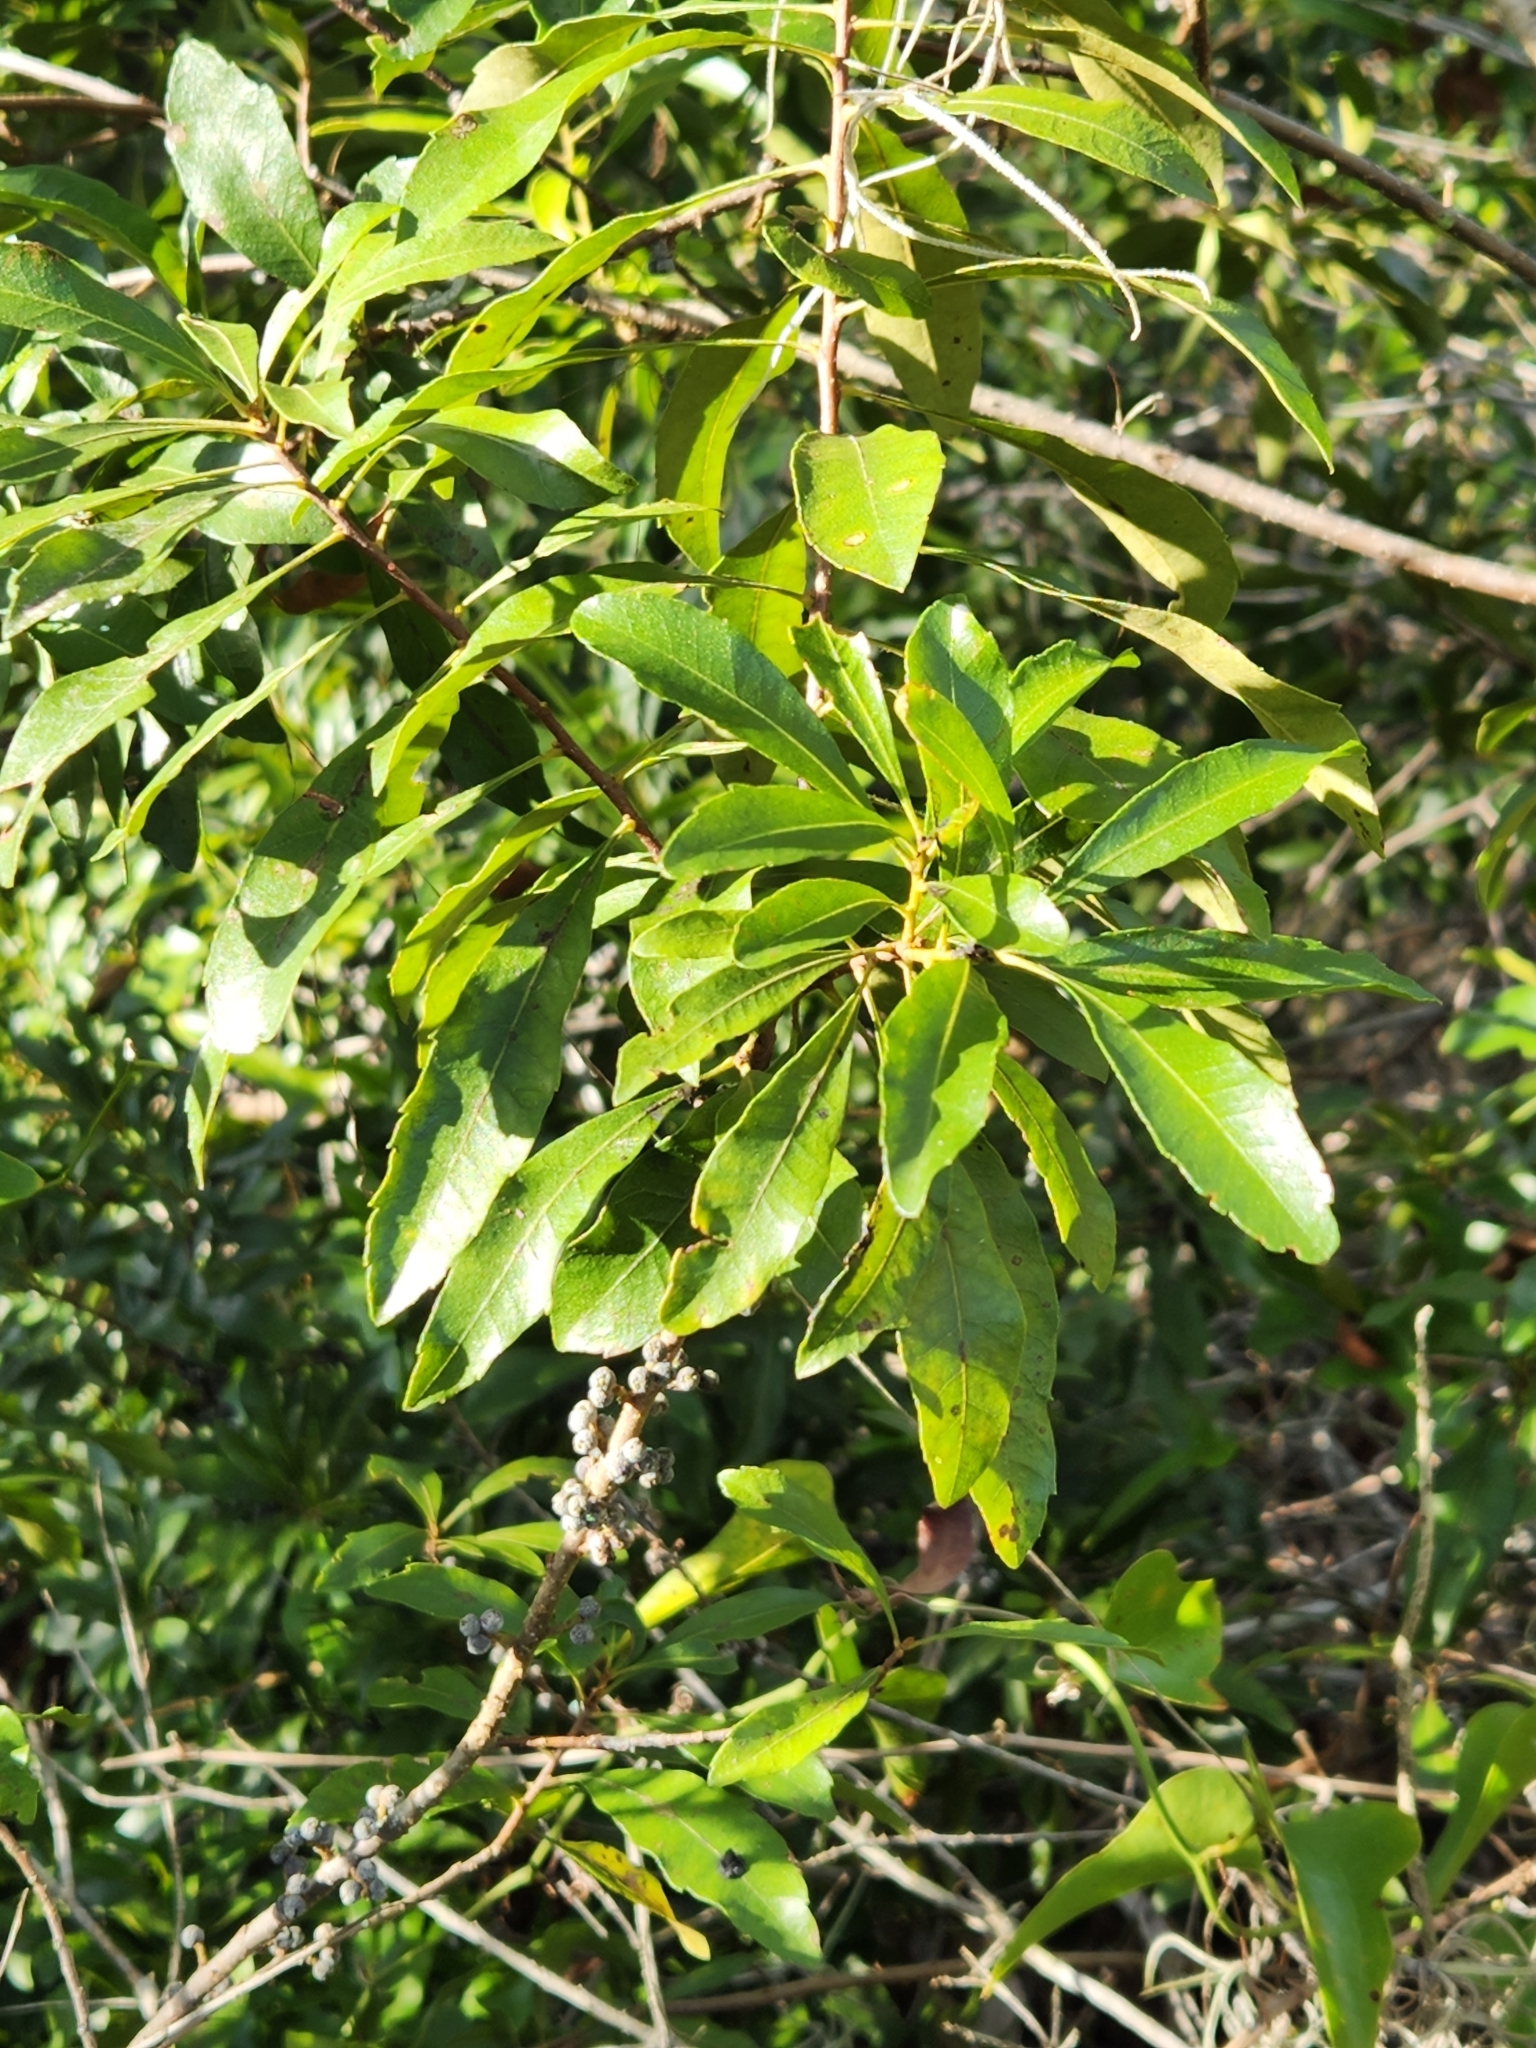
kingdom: Plantae
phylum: Tracheophyta
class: Magnoliopsida
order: Fagales
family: Myricaceae
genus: Morella
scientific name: Morella cerifera
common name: Wax myrtle
